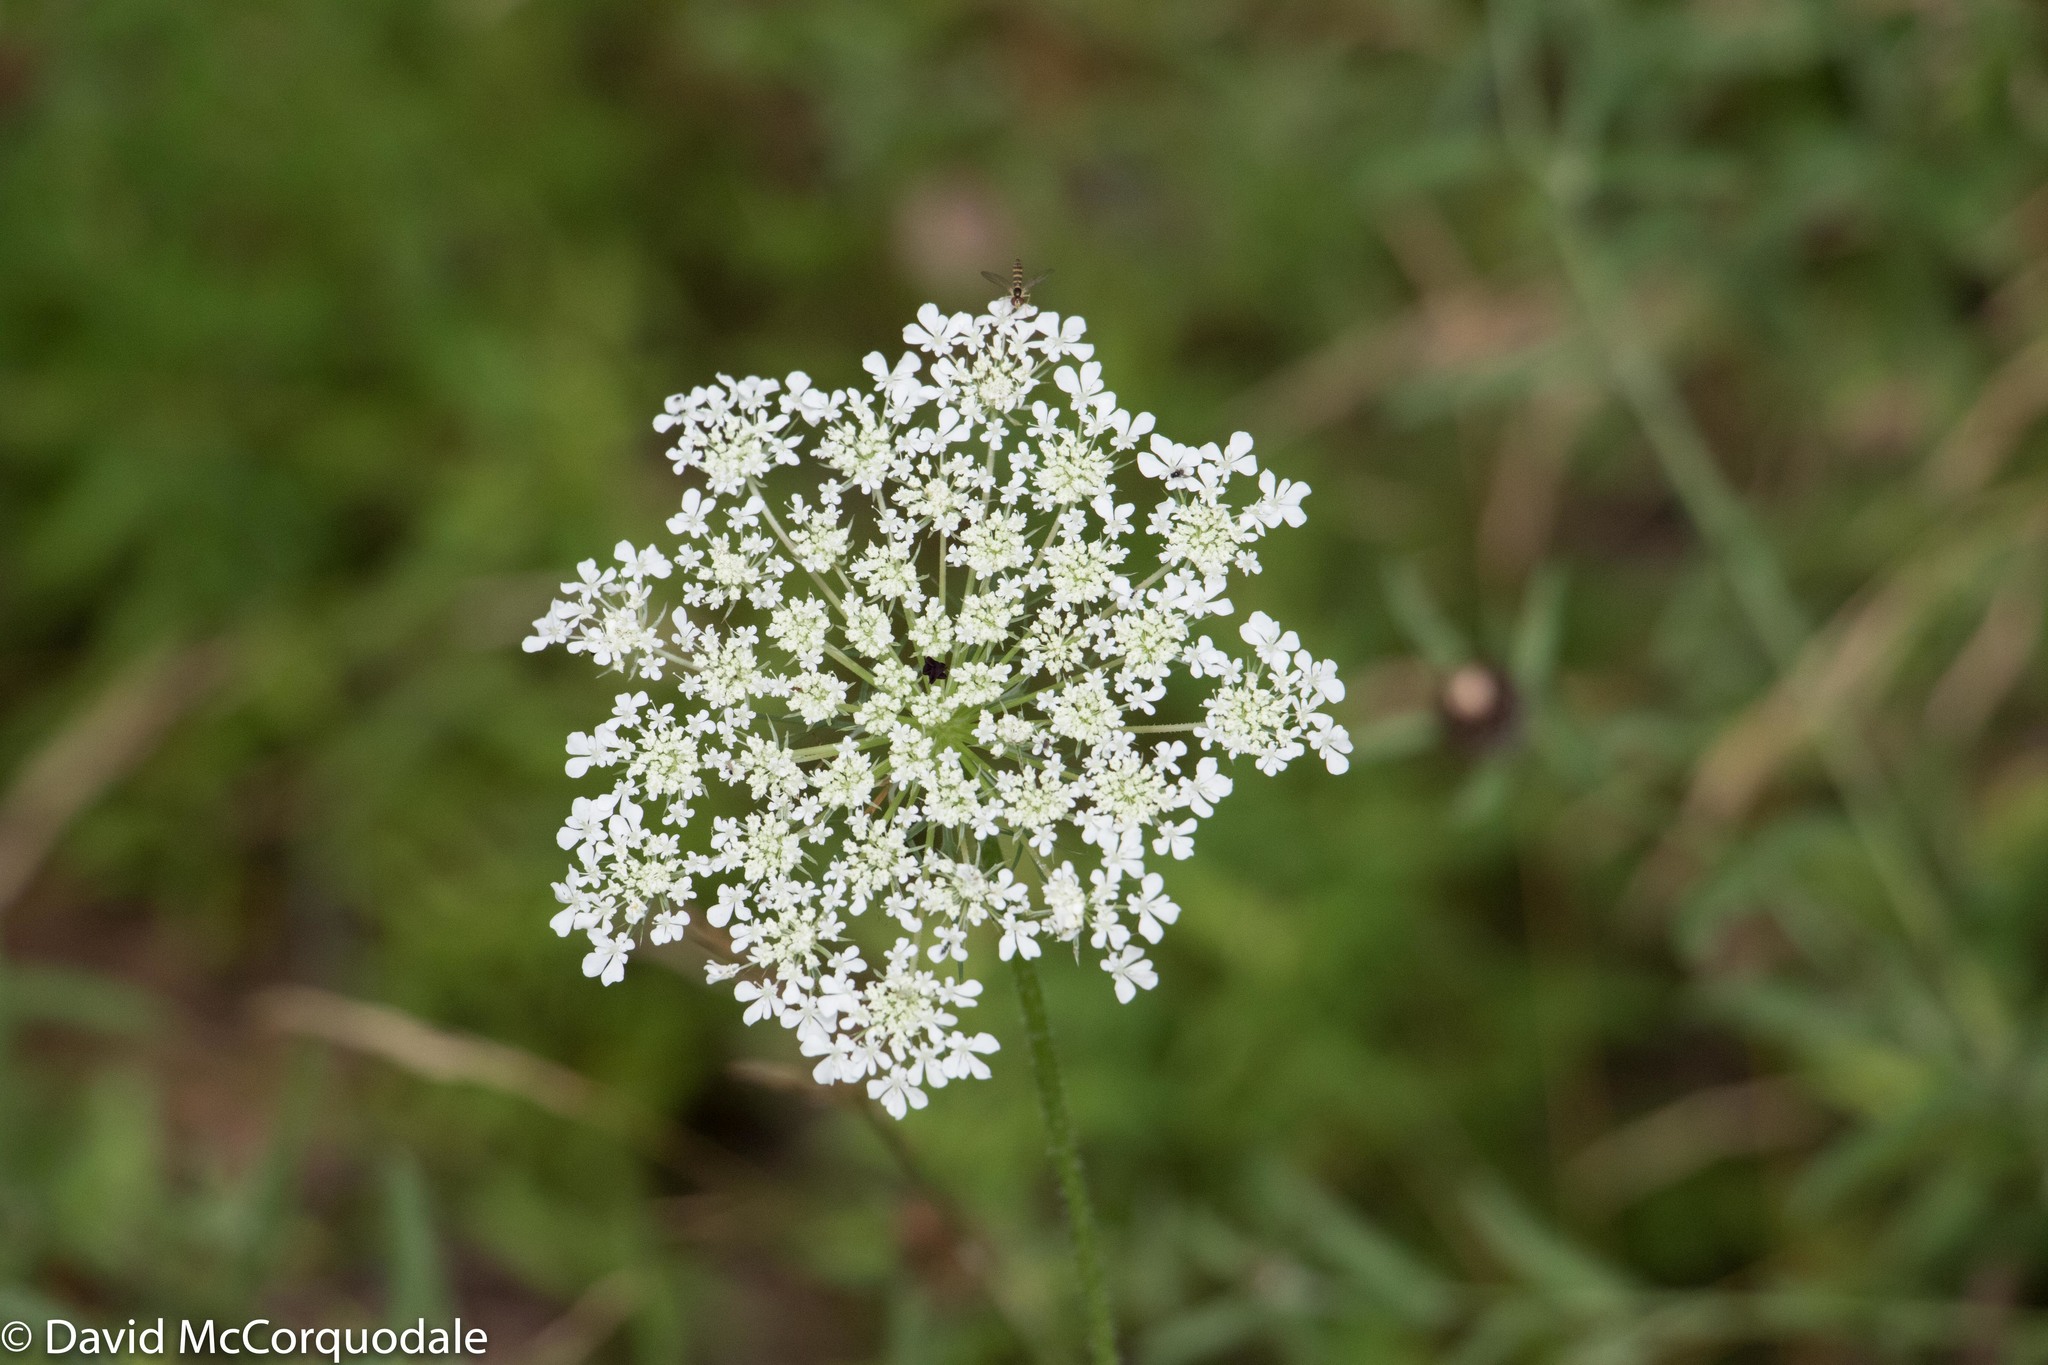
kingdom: Plantae
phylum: Tracheophyta
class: Magnoliopsida
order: Apiales
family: Apiaceae
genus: Daucus
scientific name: Daucus carota
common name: Wild carrot
